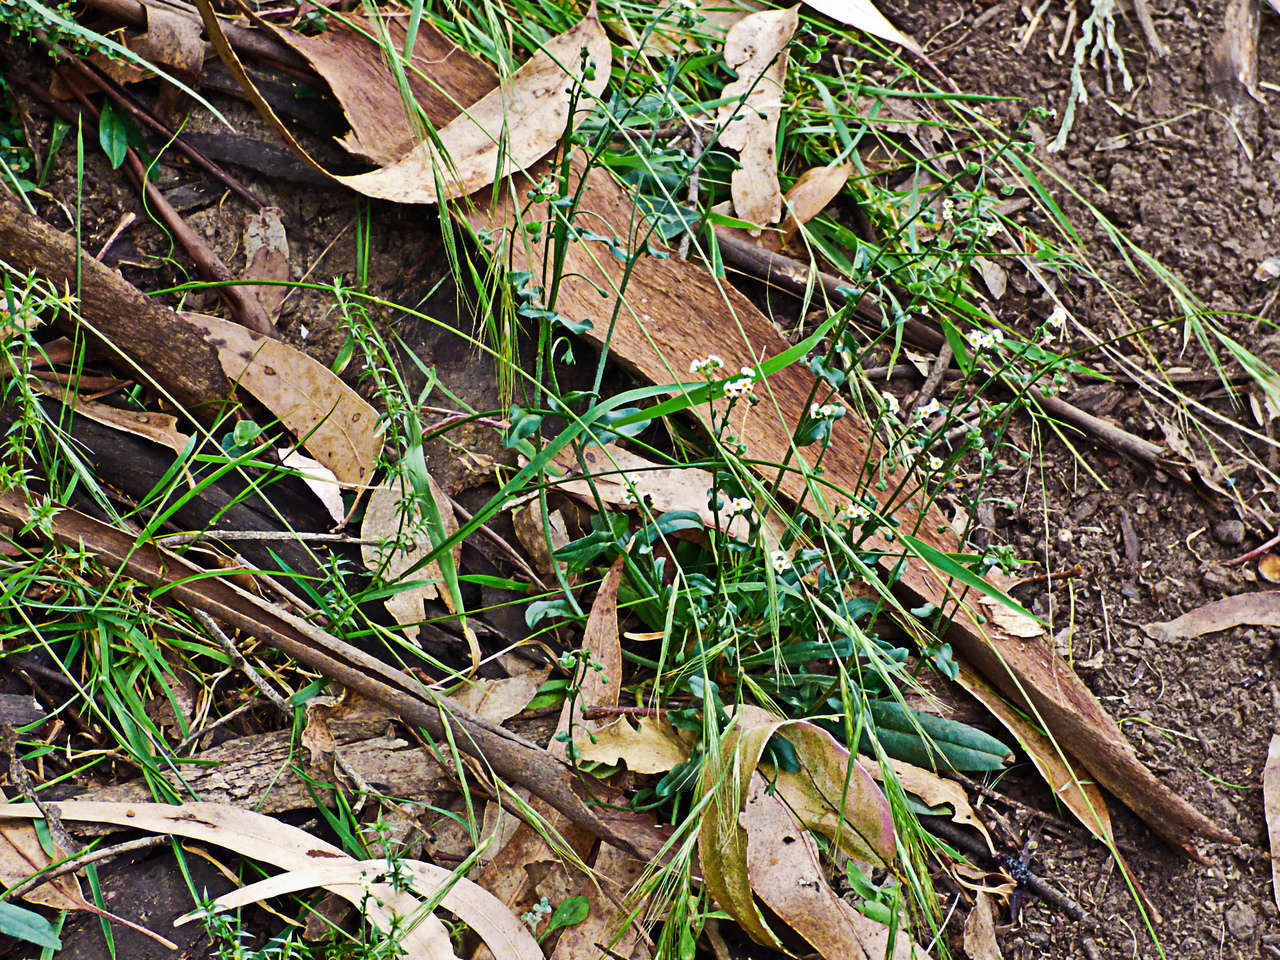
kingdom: Plantae
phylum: Tracheophyta
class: Magnoliopsida
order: Boraginales
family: Boraginaceae
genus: Hackelia
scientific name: Hackelia suaveolens
